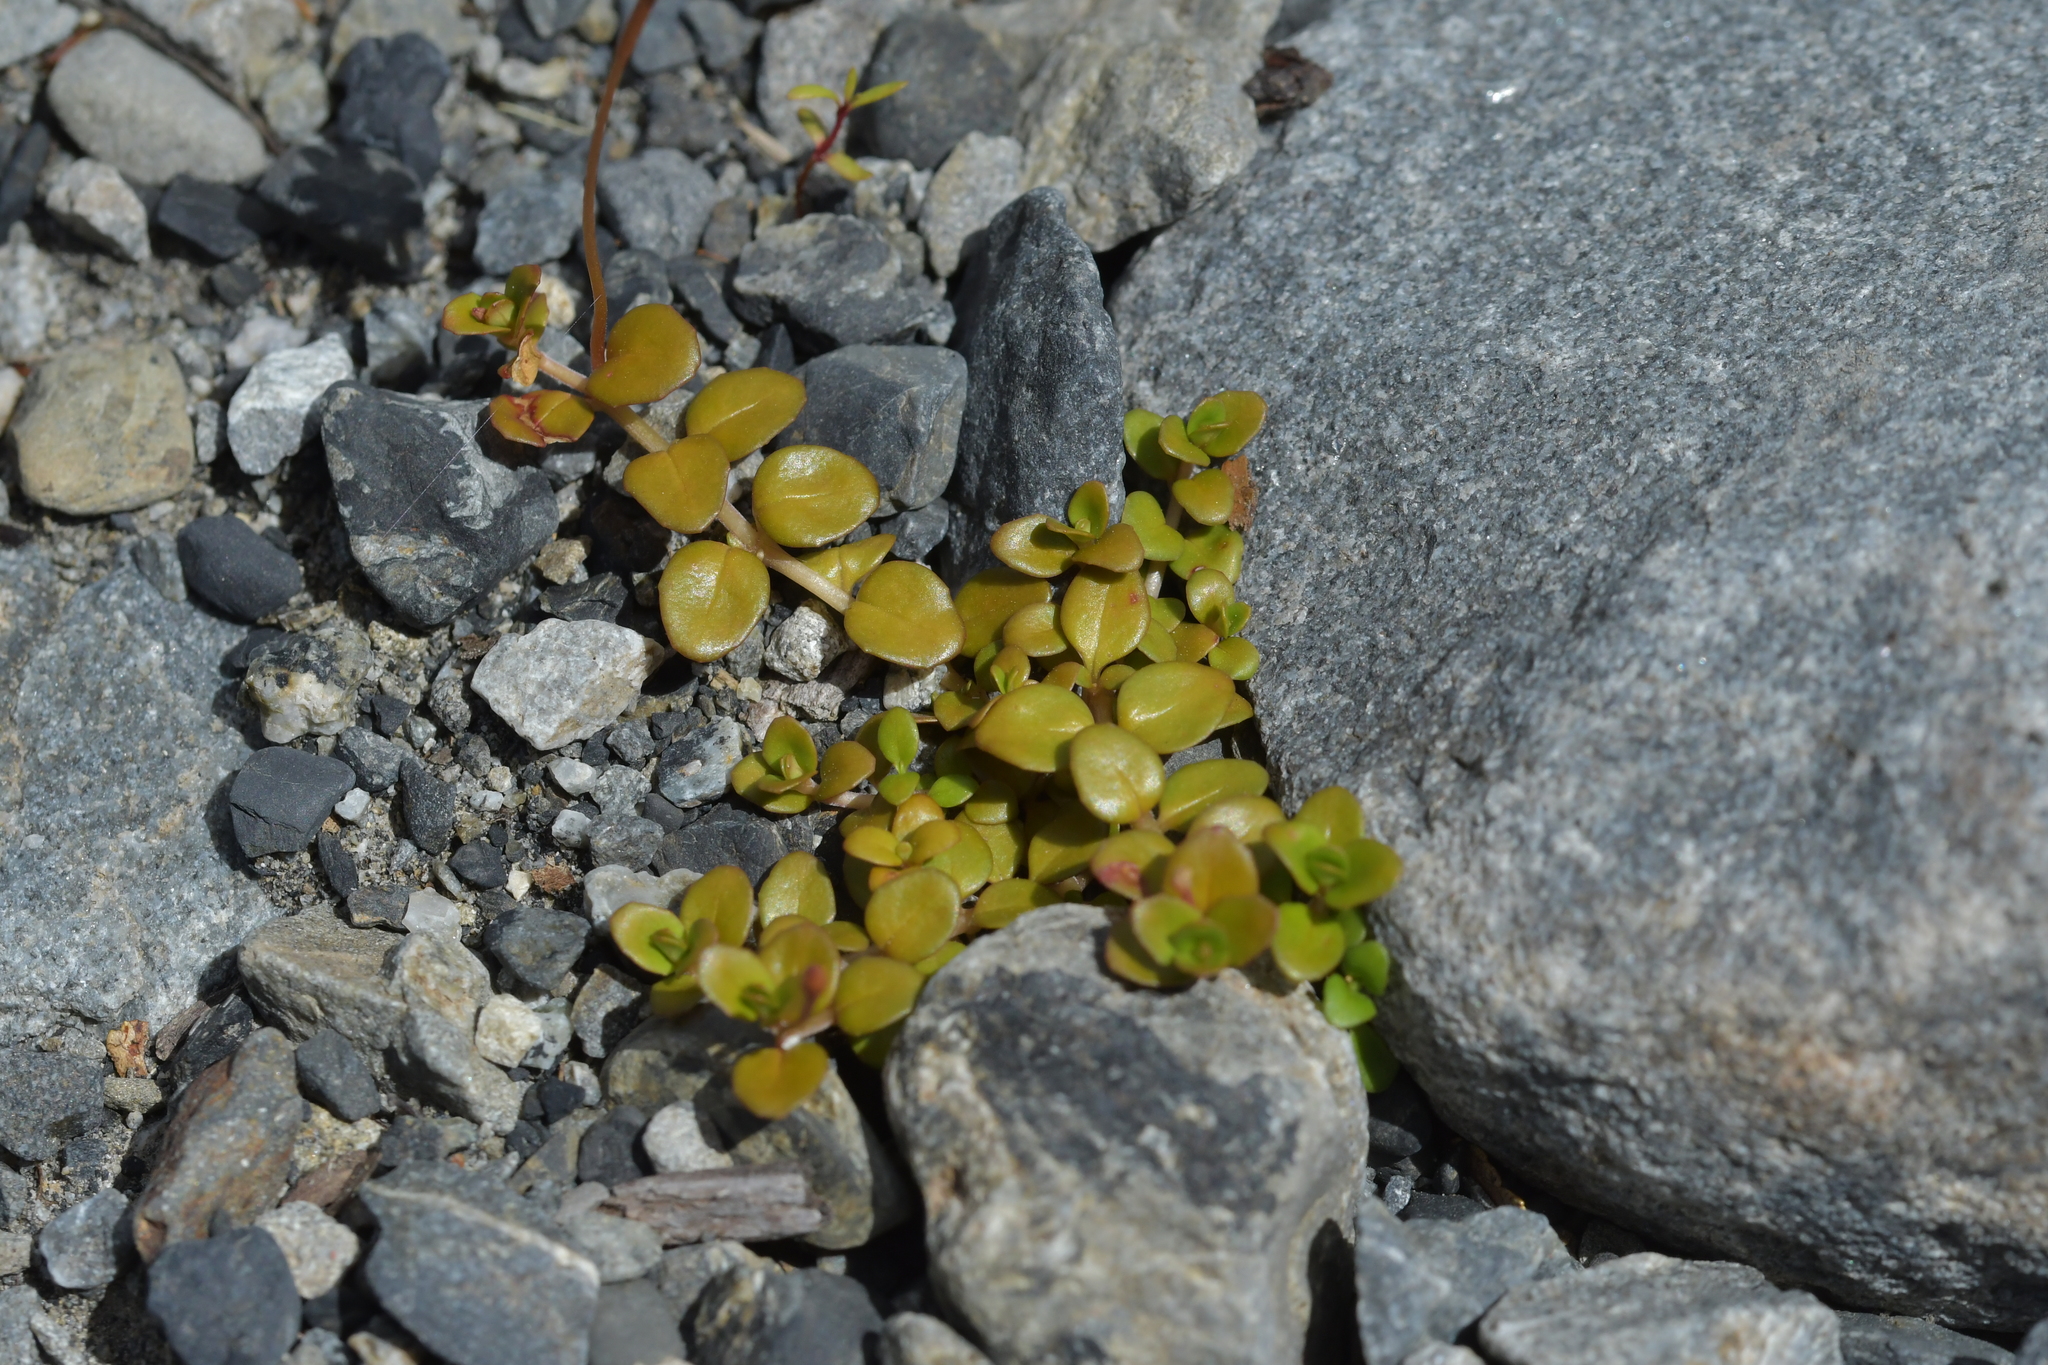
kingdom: Plantae
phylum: Tracheophyta
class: Magnoliopsida
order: Myrtales
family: Onagraceae
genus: Epilobium
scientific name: Epilobium brunnescens
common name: New zealand willowherb
